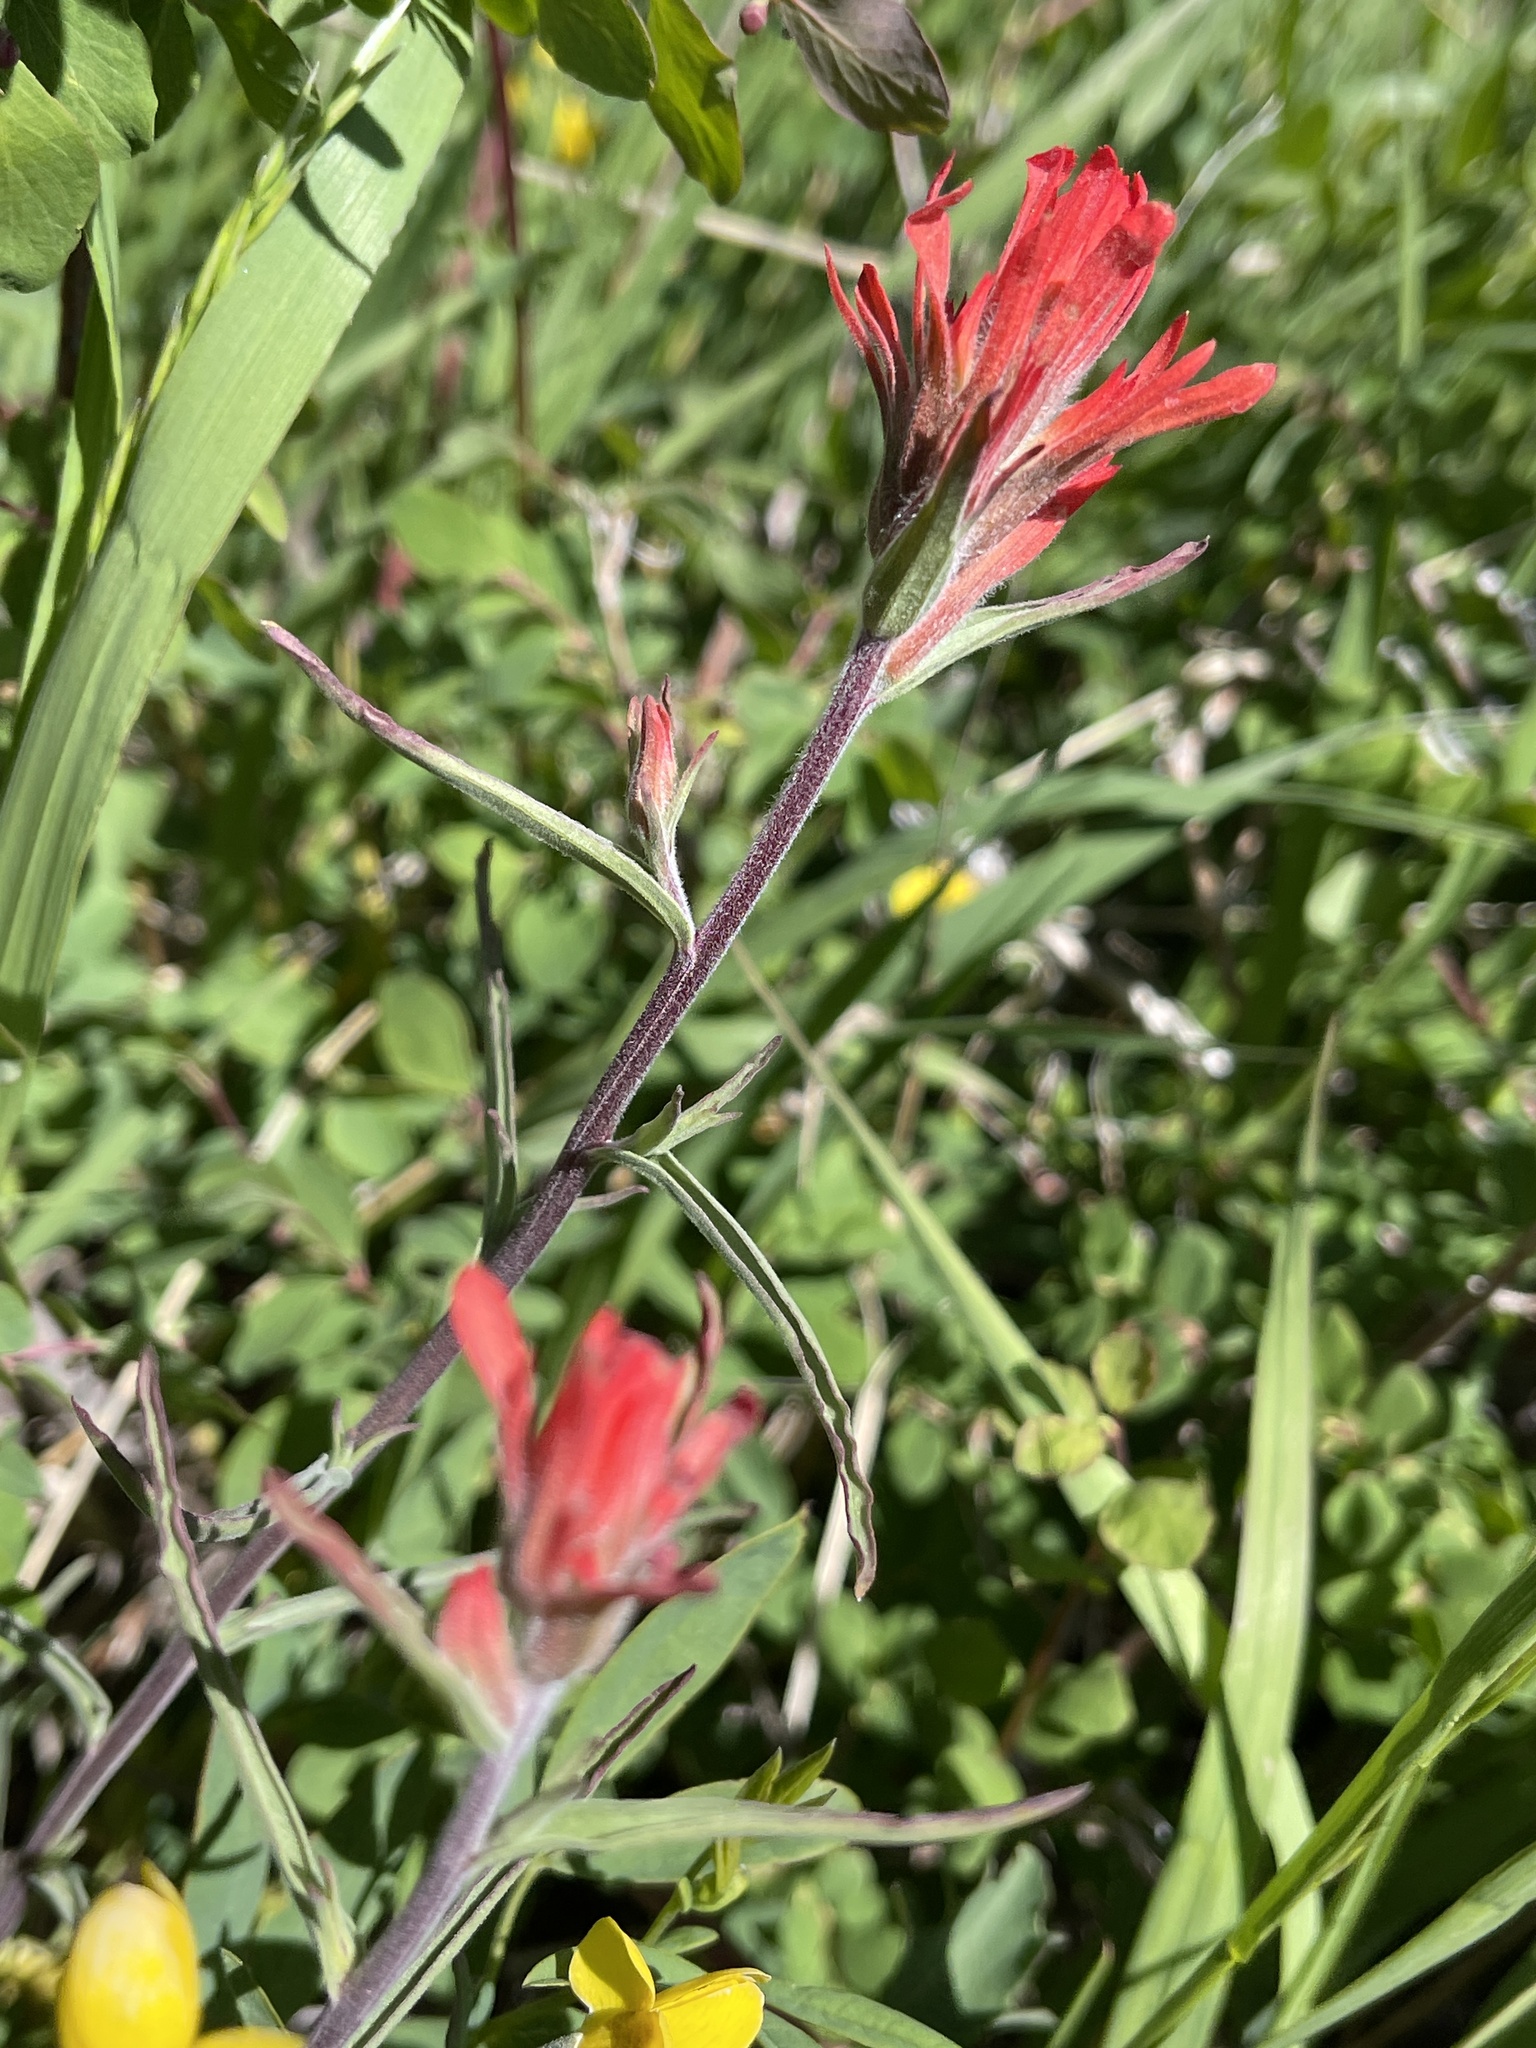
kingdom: Plantae
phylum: Tracheophyta
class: Magnoliopsida
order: Lamiales
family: Orobanchaceae
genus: Castilleja
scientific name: Castilleja linariifolia
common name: Wyoming paintbrush
